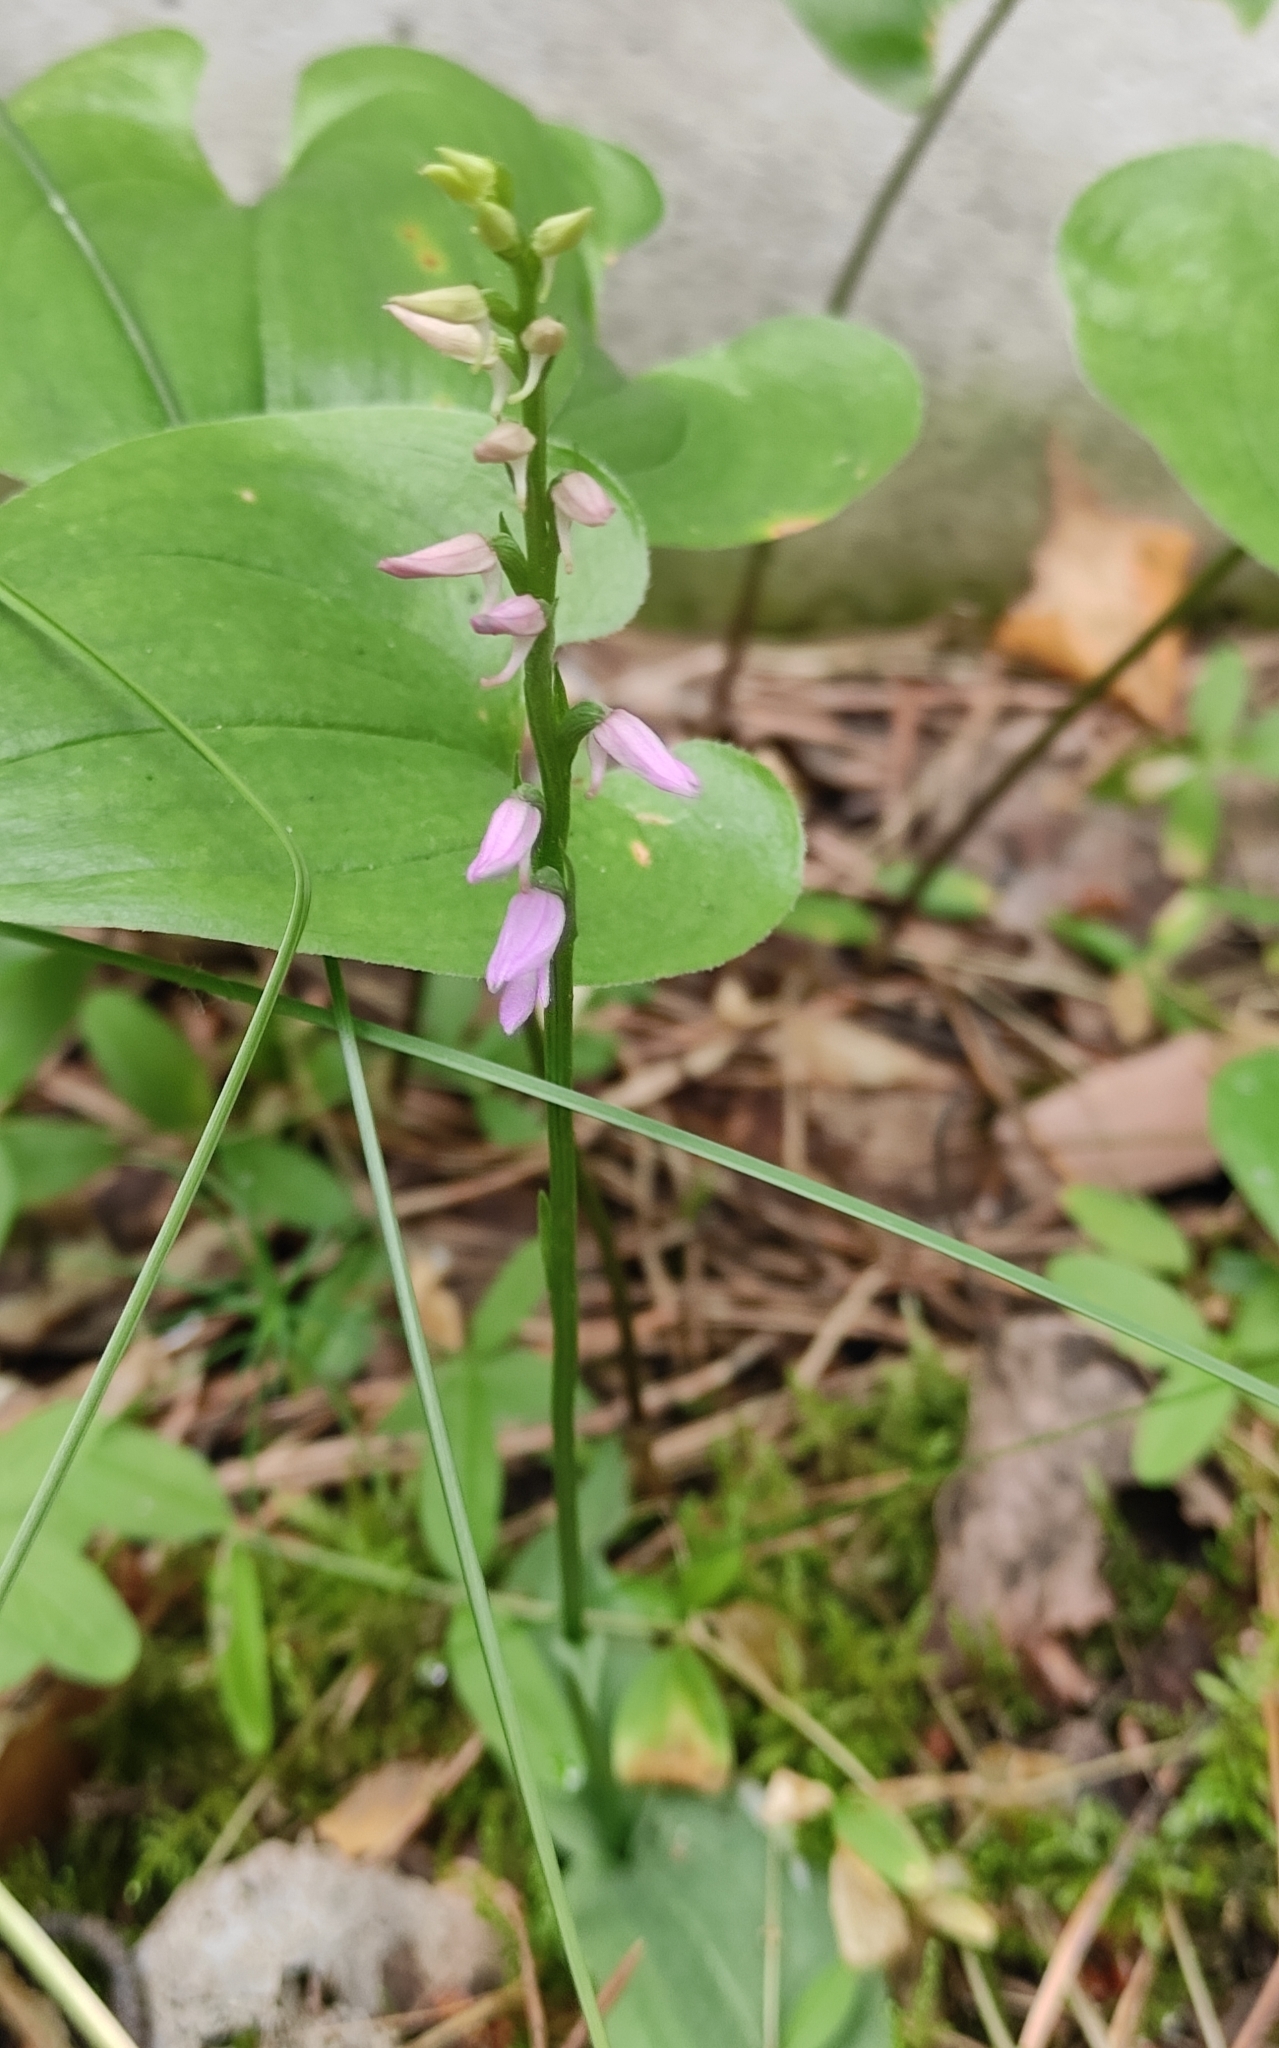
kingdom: Plantae
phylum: Tracheophyta
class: Liliopsida
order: Asparagales
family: Orchidaceae
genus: Hemipilia
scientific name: Hemipilia cucullata
